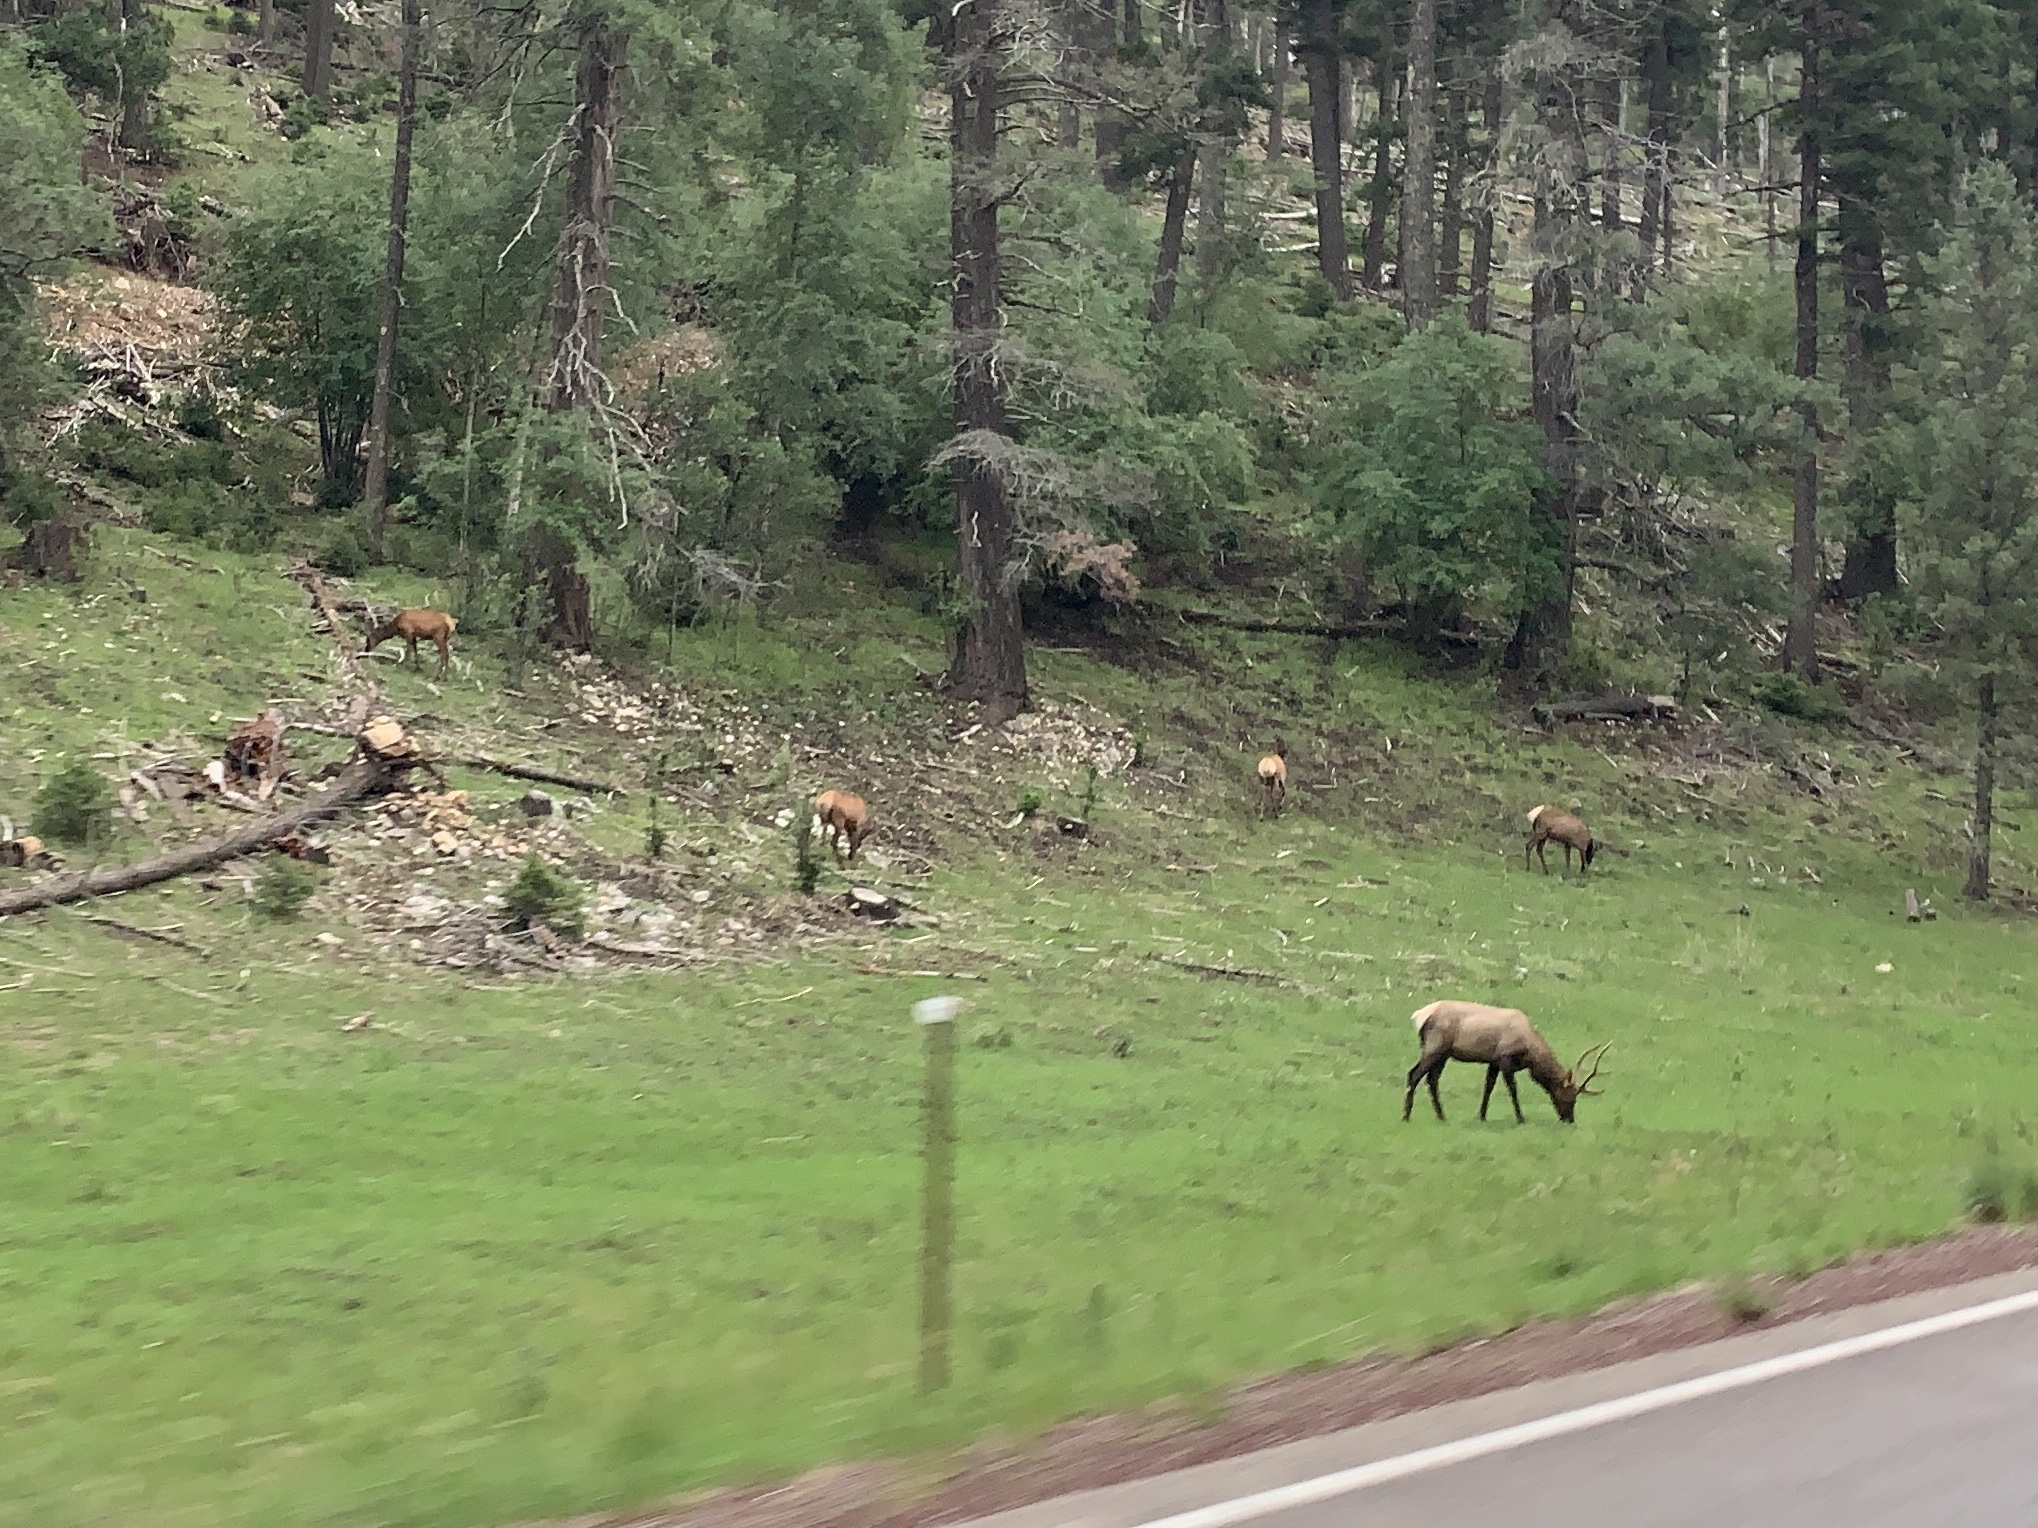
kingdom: Animalia
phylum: Chordata
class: Mammalia
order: Artiodactyla
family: Cervidae
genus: Cervus
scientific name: Cervus elaphus
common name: Red deer
